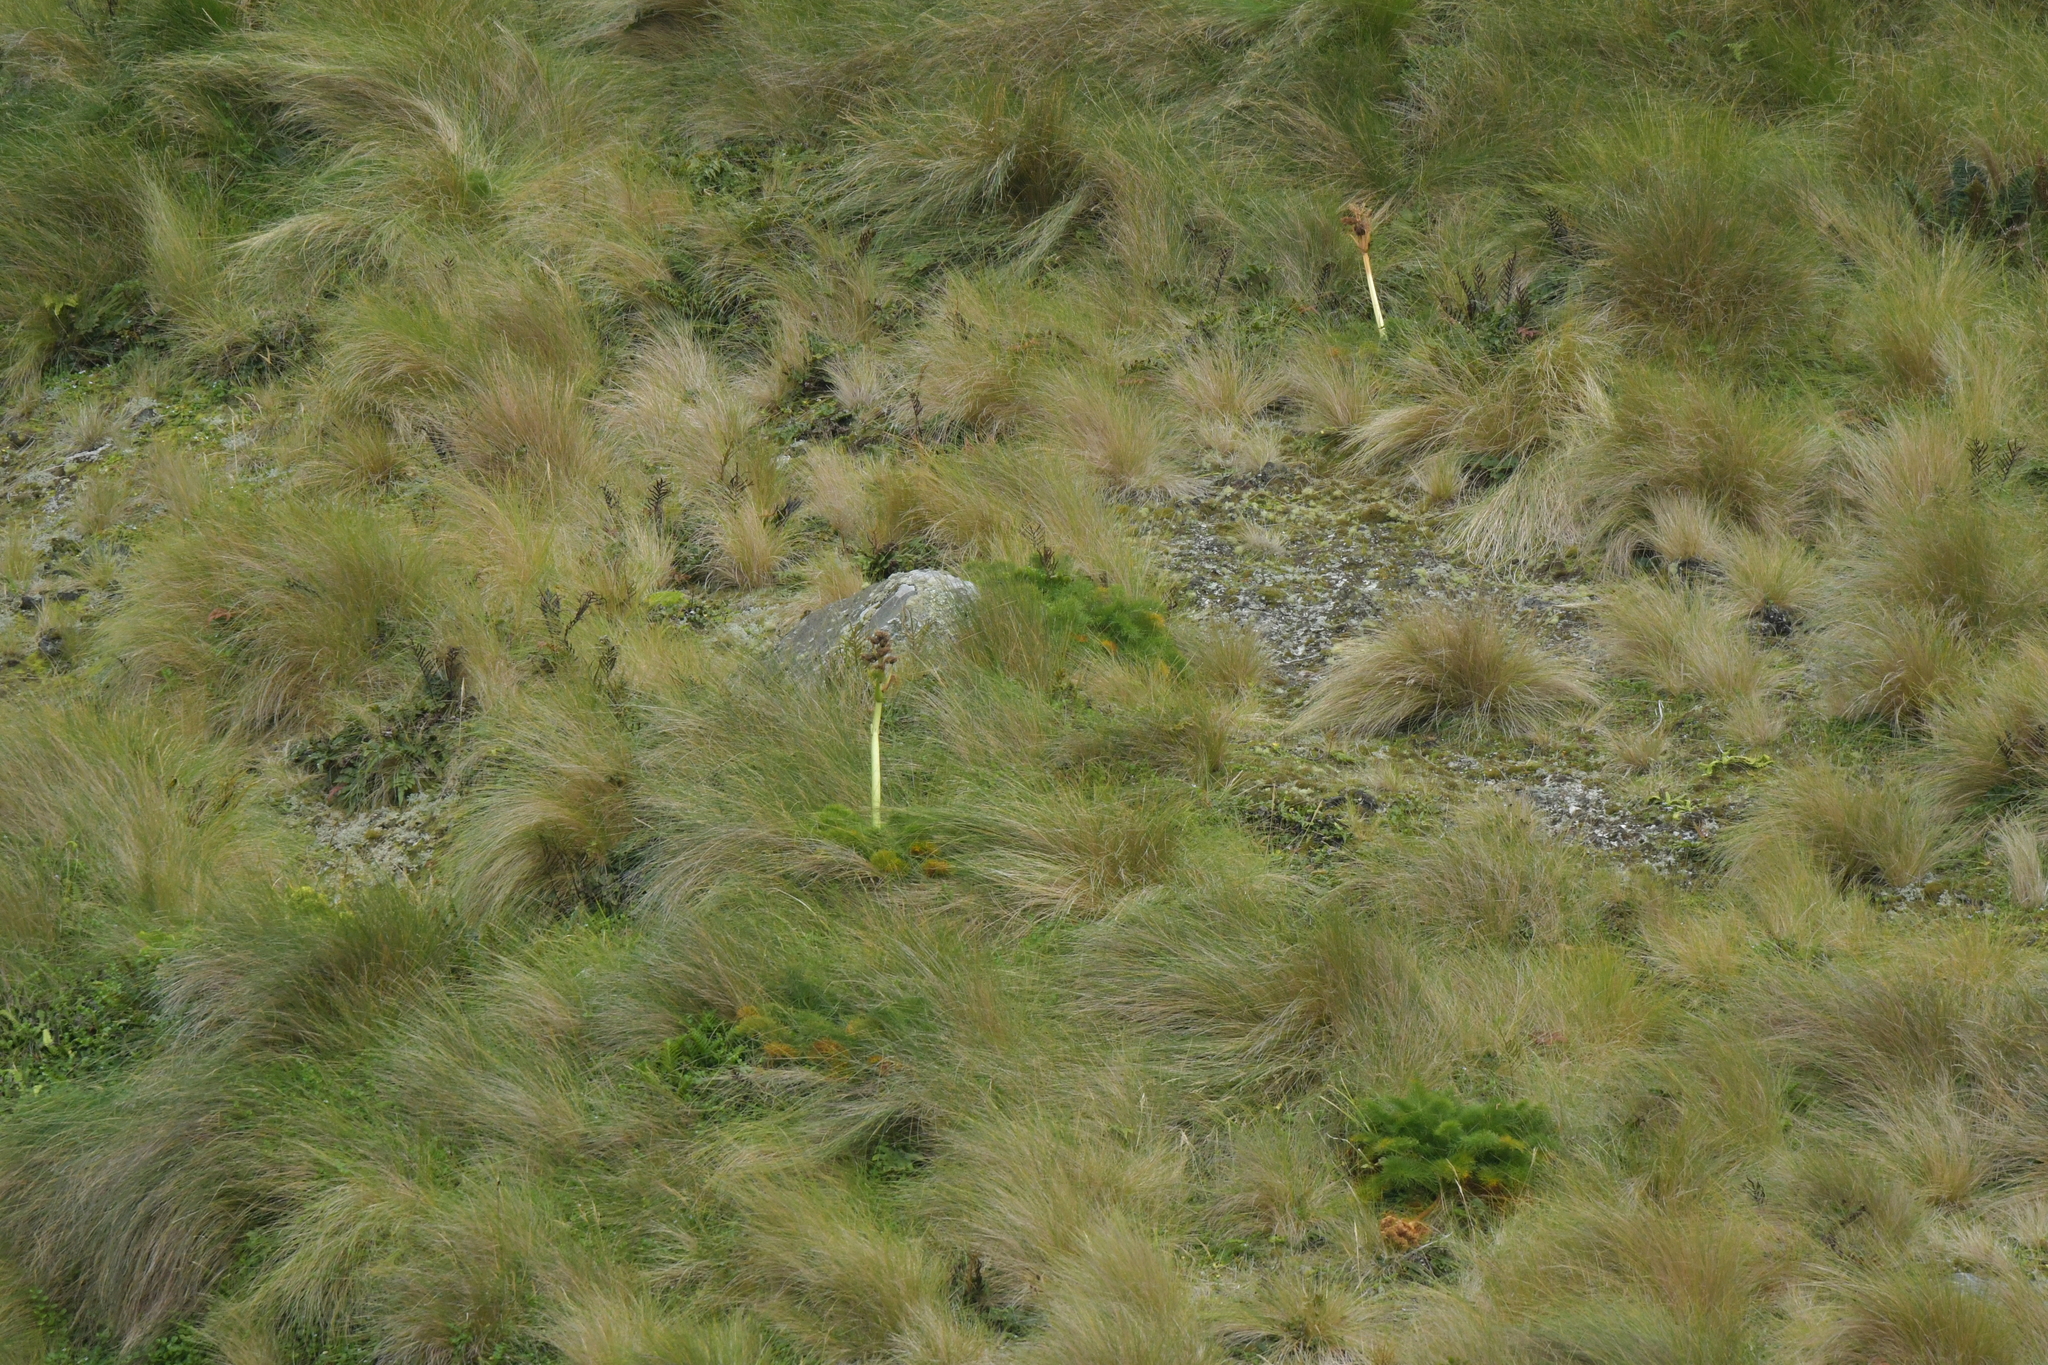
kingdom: Plantae
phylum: Tracheophyta
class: Magnoliopsida
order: Apiales
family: Apiaceae
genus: Anisotome
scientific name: Anisotome antipoda
